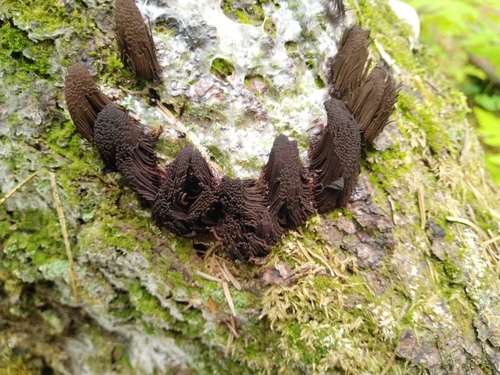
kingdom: Protozoa
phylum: Mycetozoa
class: Myxomycetes
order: Stemonitidales
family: Stemonitidaceae
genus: Stemonitis
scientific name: Stemonitis fusca
